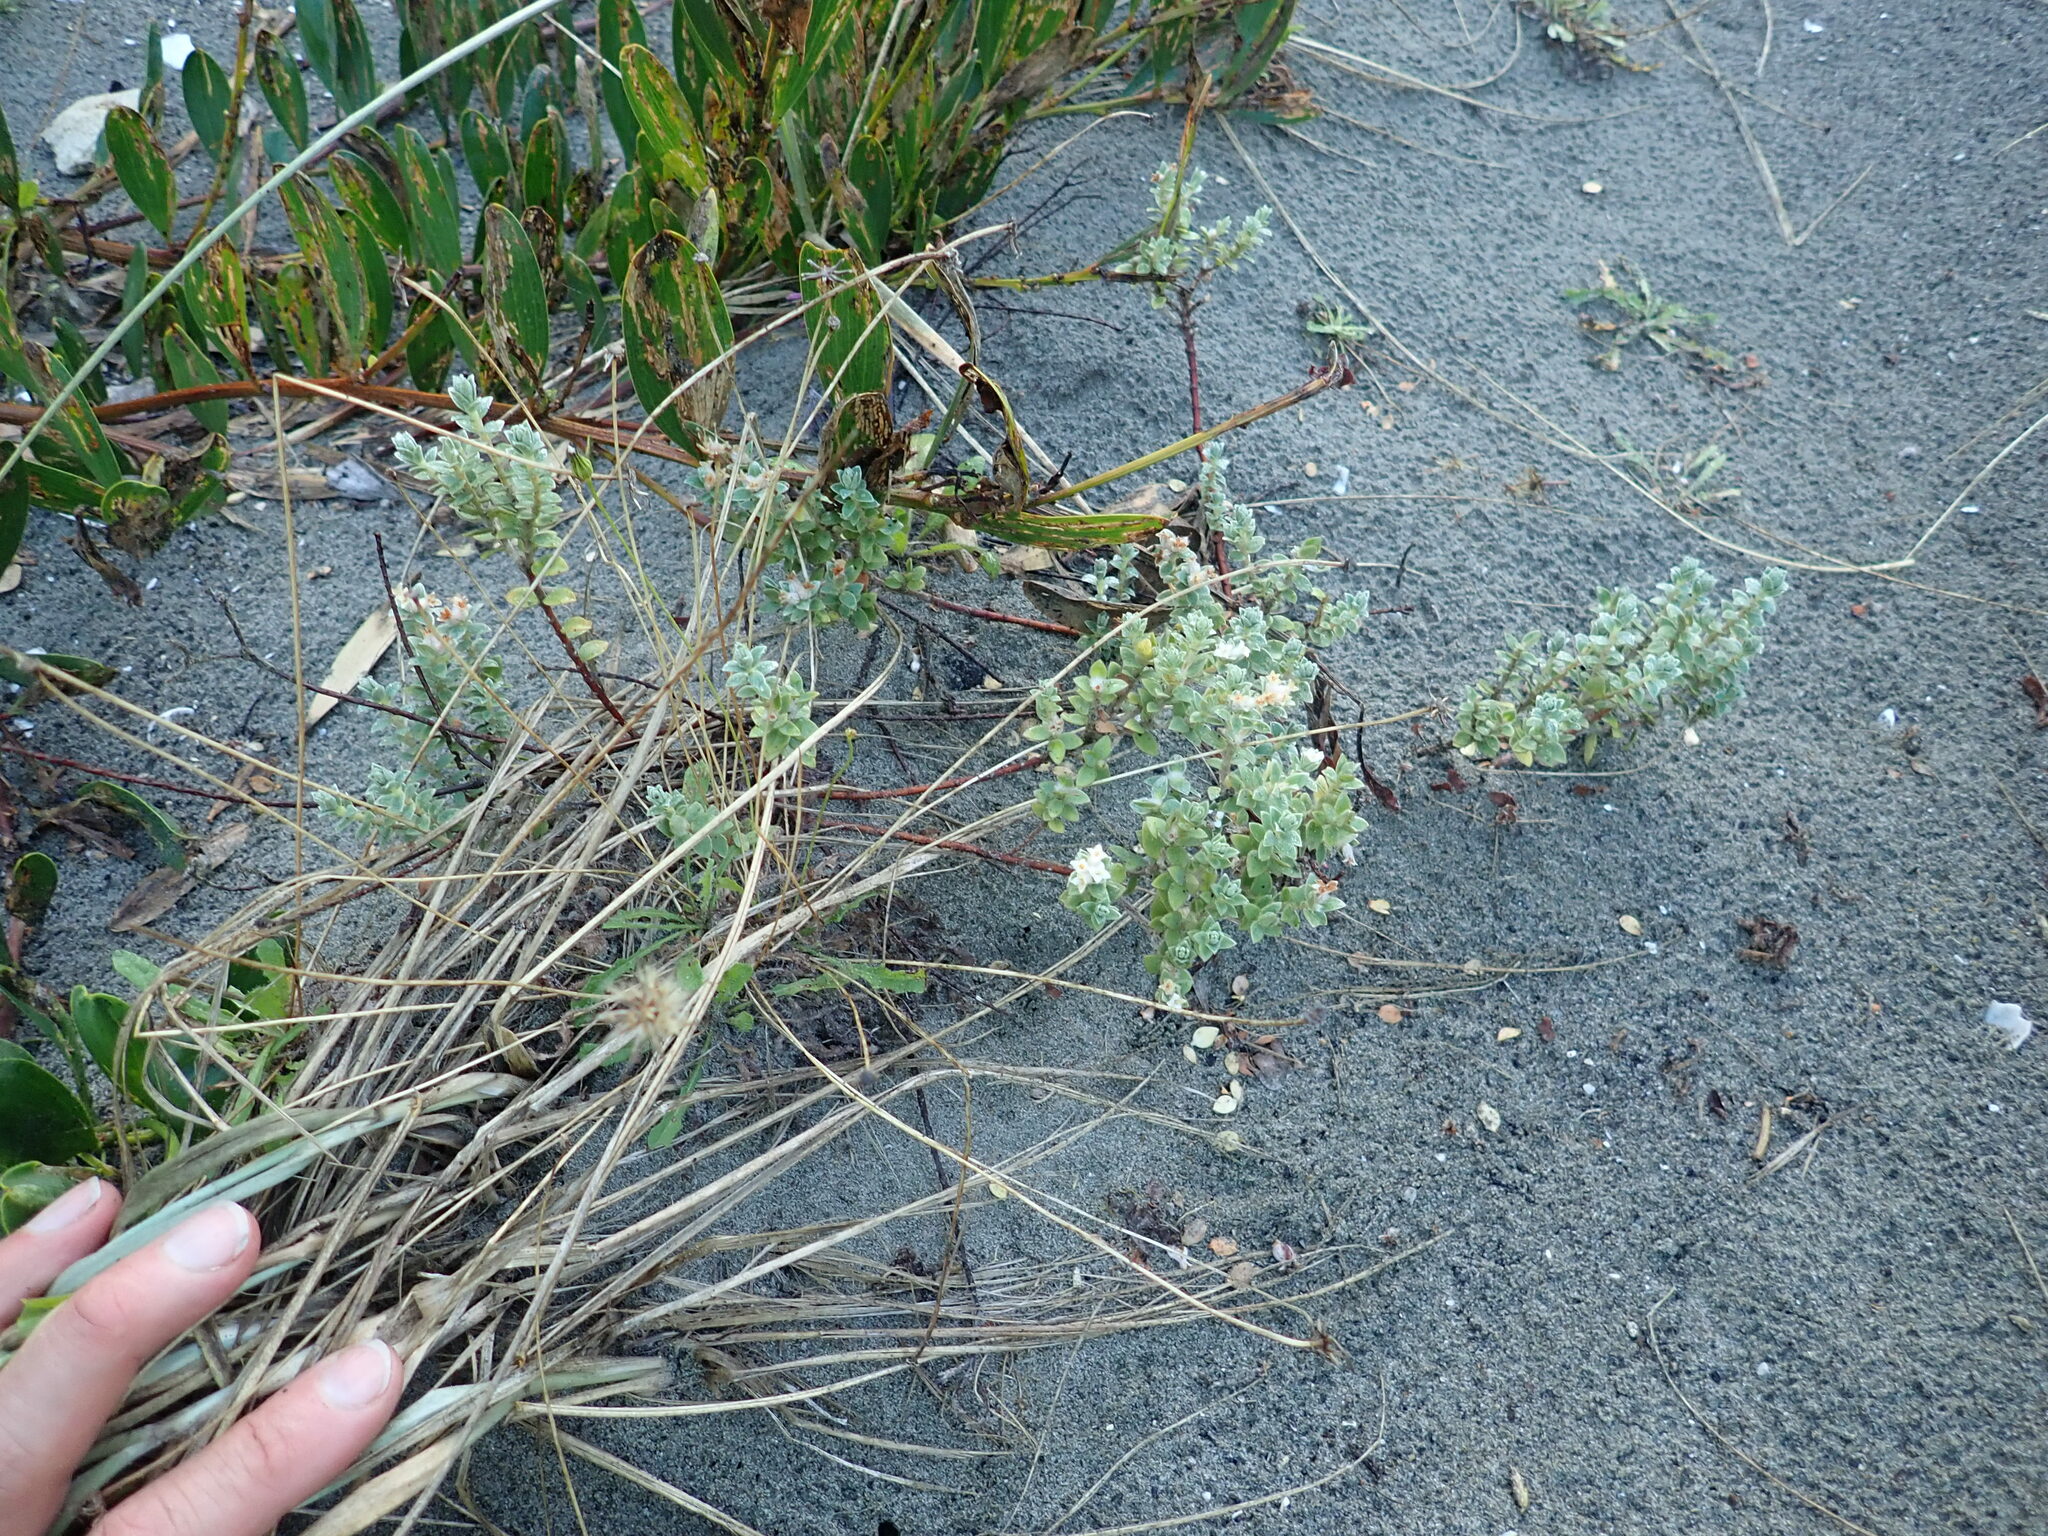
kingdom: Plantae
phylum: Tracheophyta
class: Magnoliopsida
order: Malvales
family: Thymelaeaceae
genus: Pimelea
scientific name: Pimelea villosa
